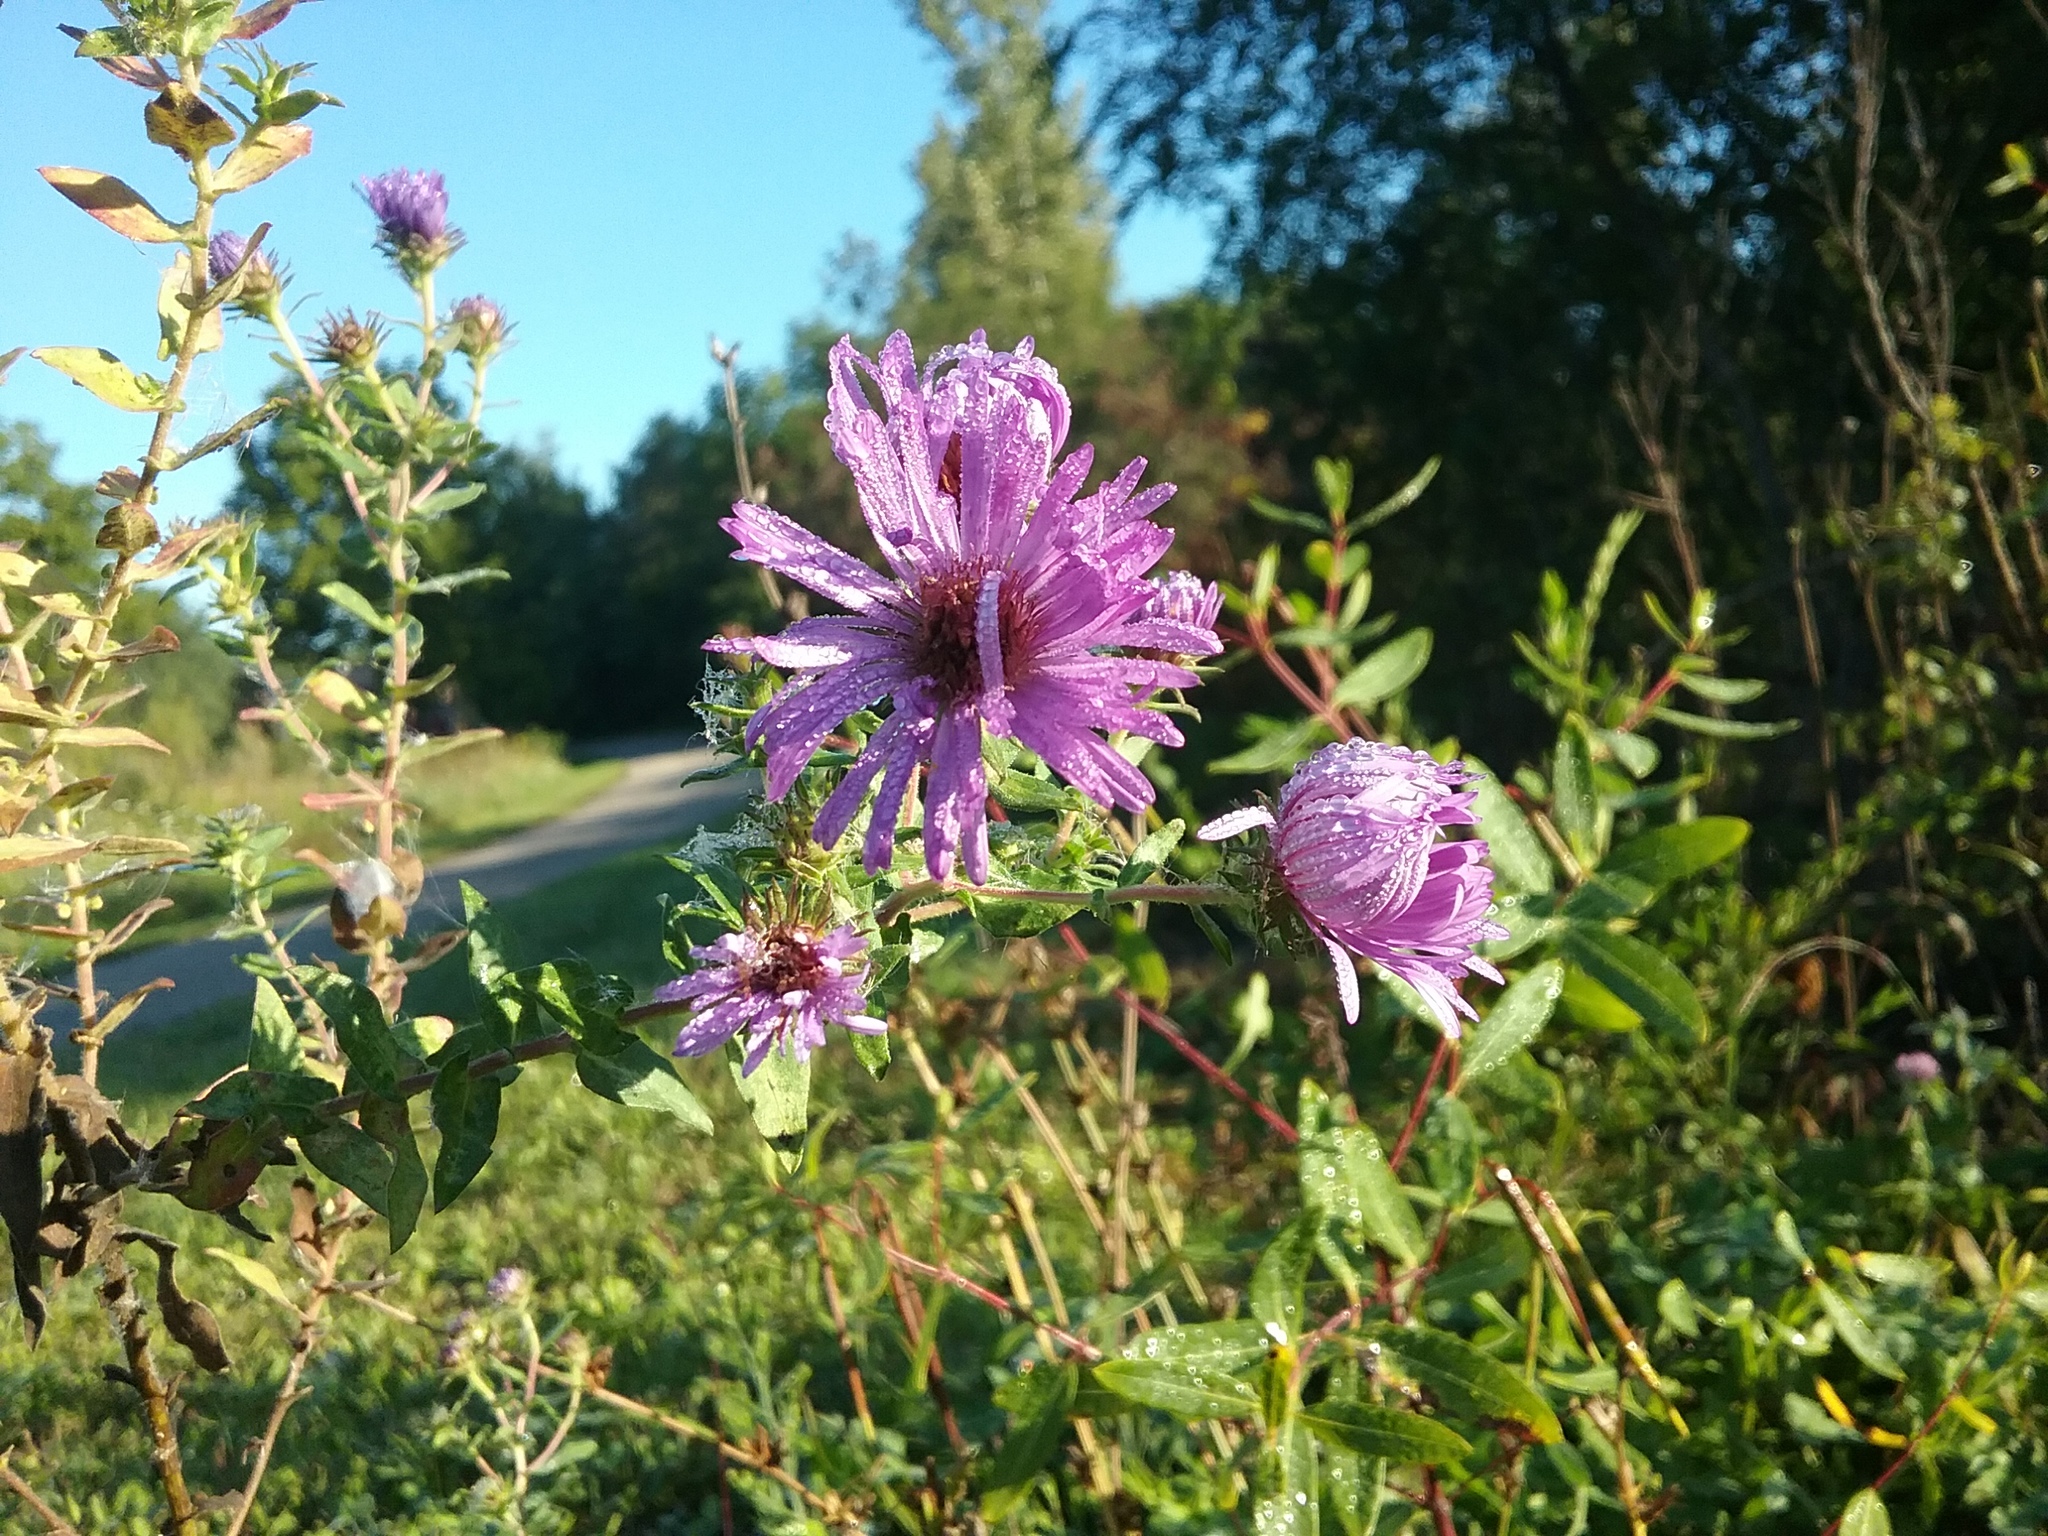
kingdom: Plantae
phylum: Tracheophyta
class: Magnoliopsida
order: Asterales
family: Asteraceae
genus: Symphyotrichum
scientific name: Symphyotrichum novae-angliae
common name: Michaelmas daisy
